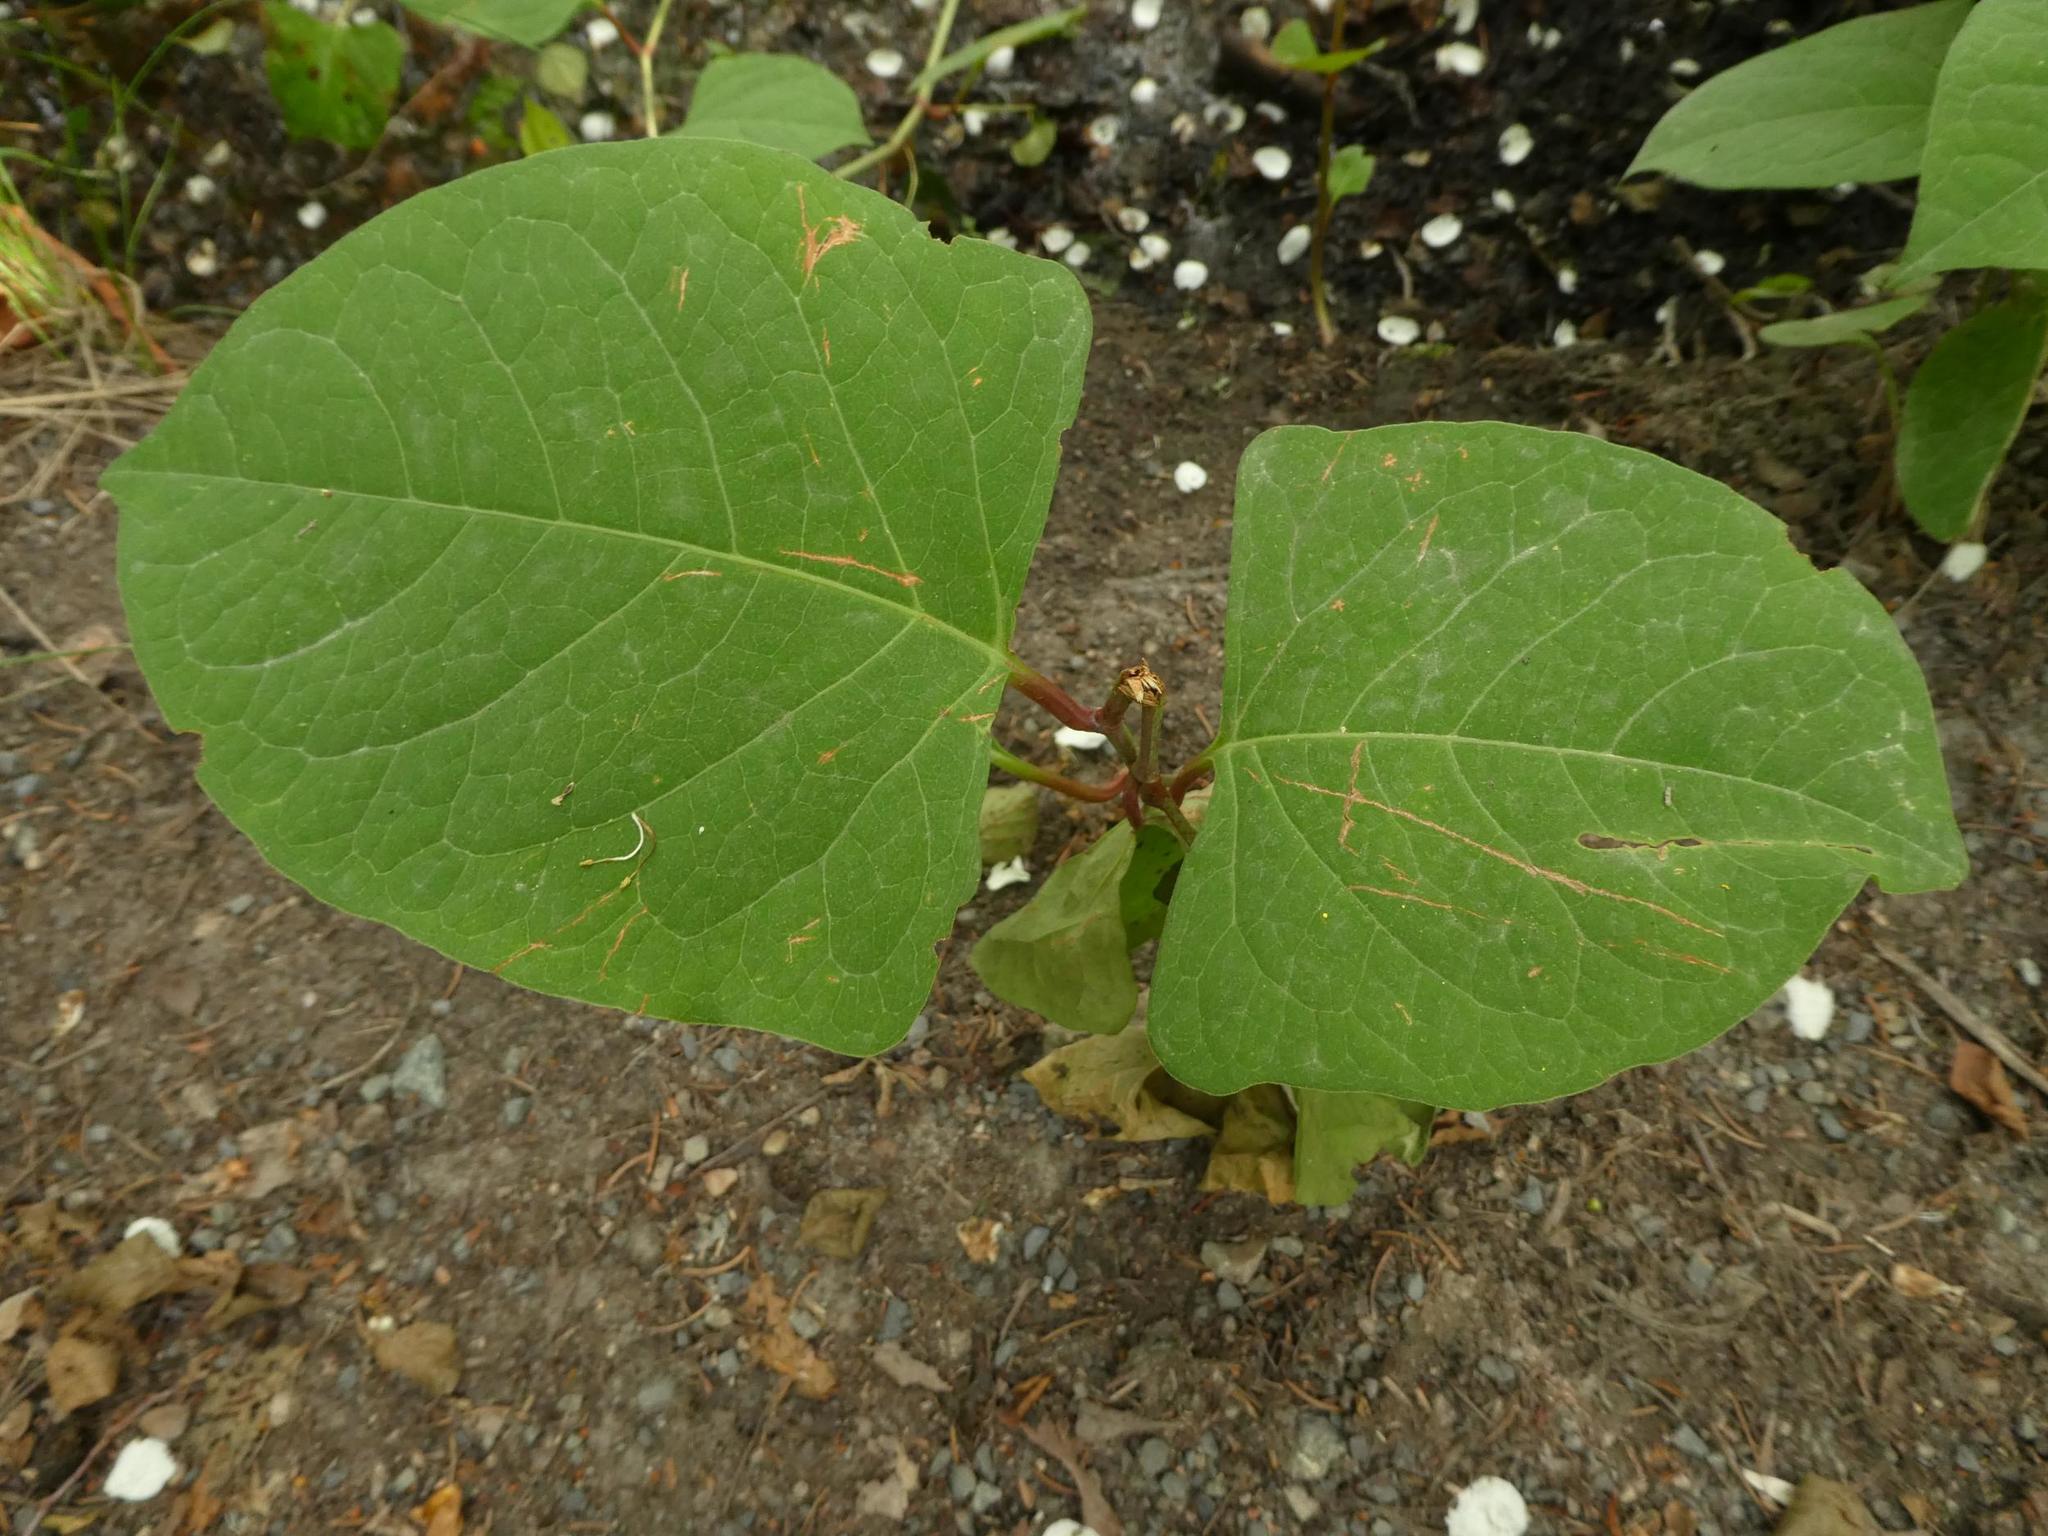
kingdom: Plantae
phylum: Tracheophyta
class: Magnoliopsida
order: Caryophyllales
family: Polygonaceae
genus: Reynoutria
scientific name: Reynoutria japonica
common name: Japanese knotweed
